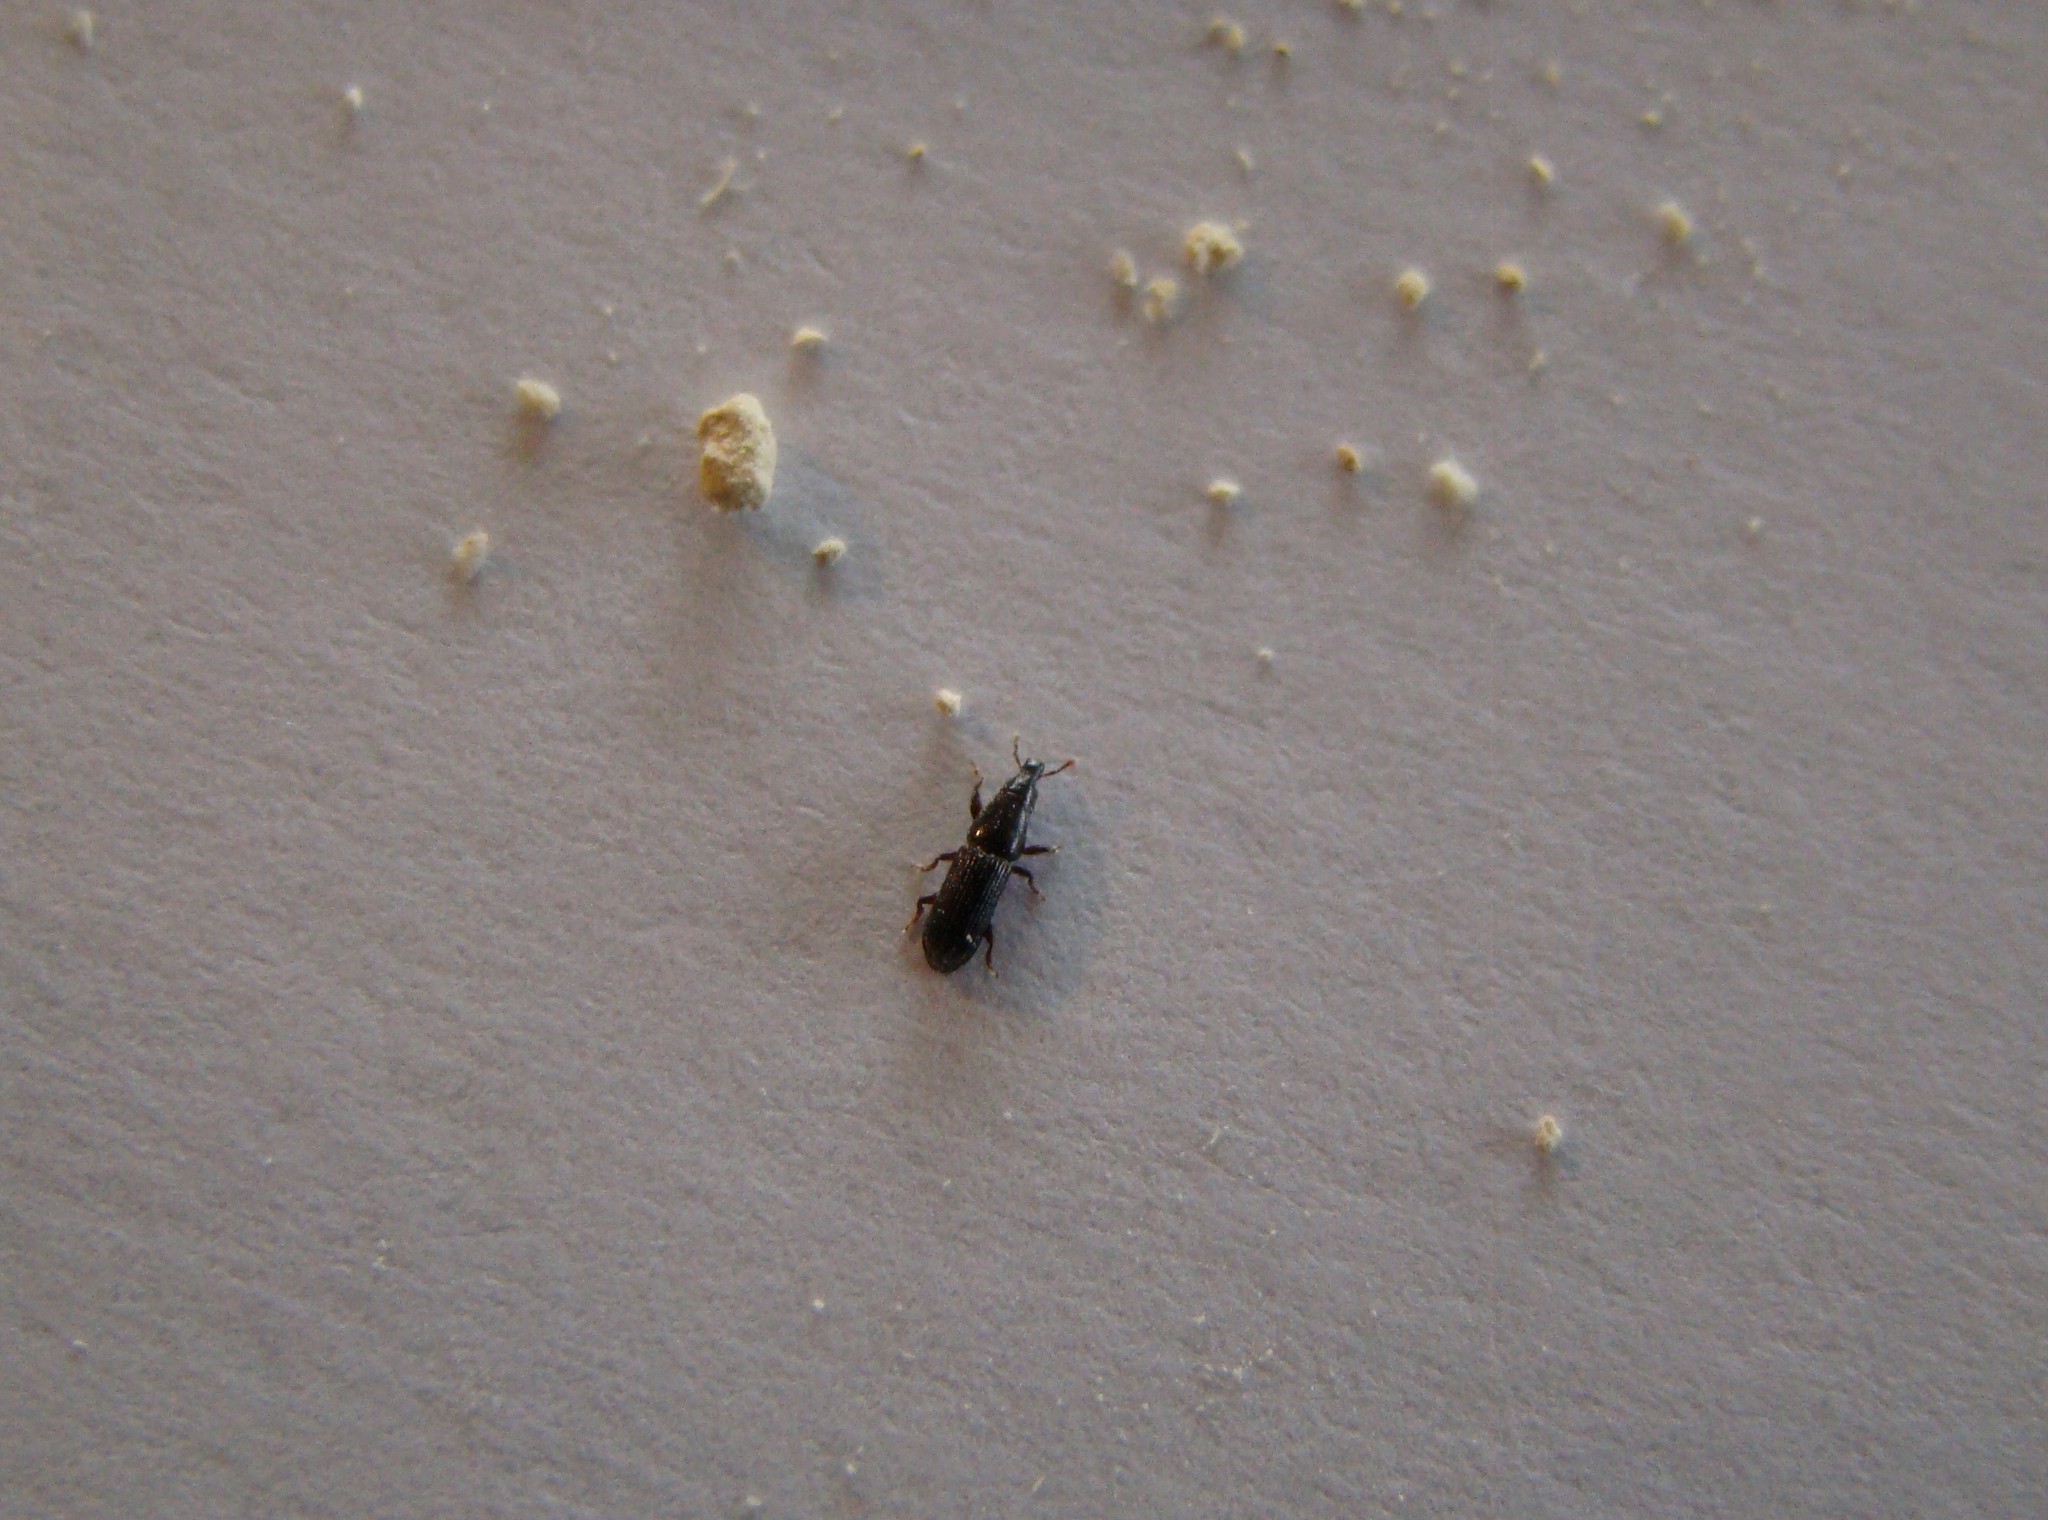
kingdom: Animalia
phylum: Arthropoda
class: Insecta
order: Coleoptera
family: Curculionidae
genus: Zenoteratus
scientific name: Zenoteratus macrocephalus
